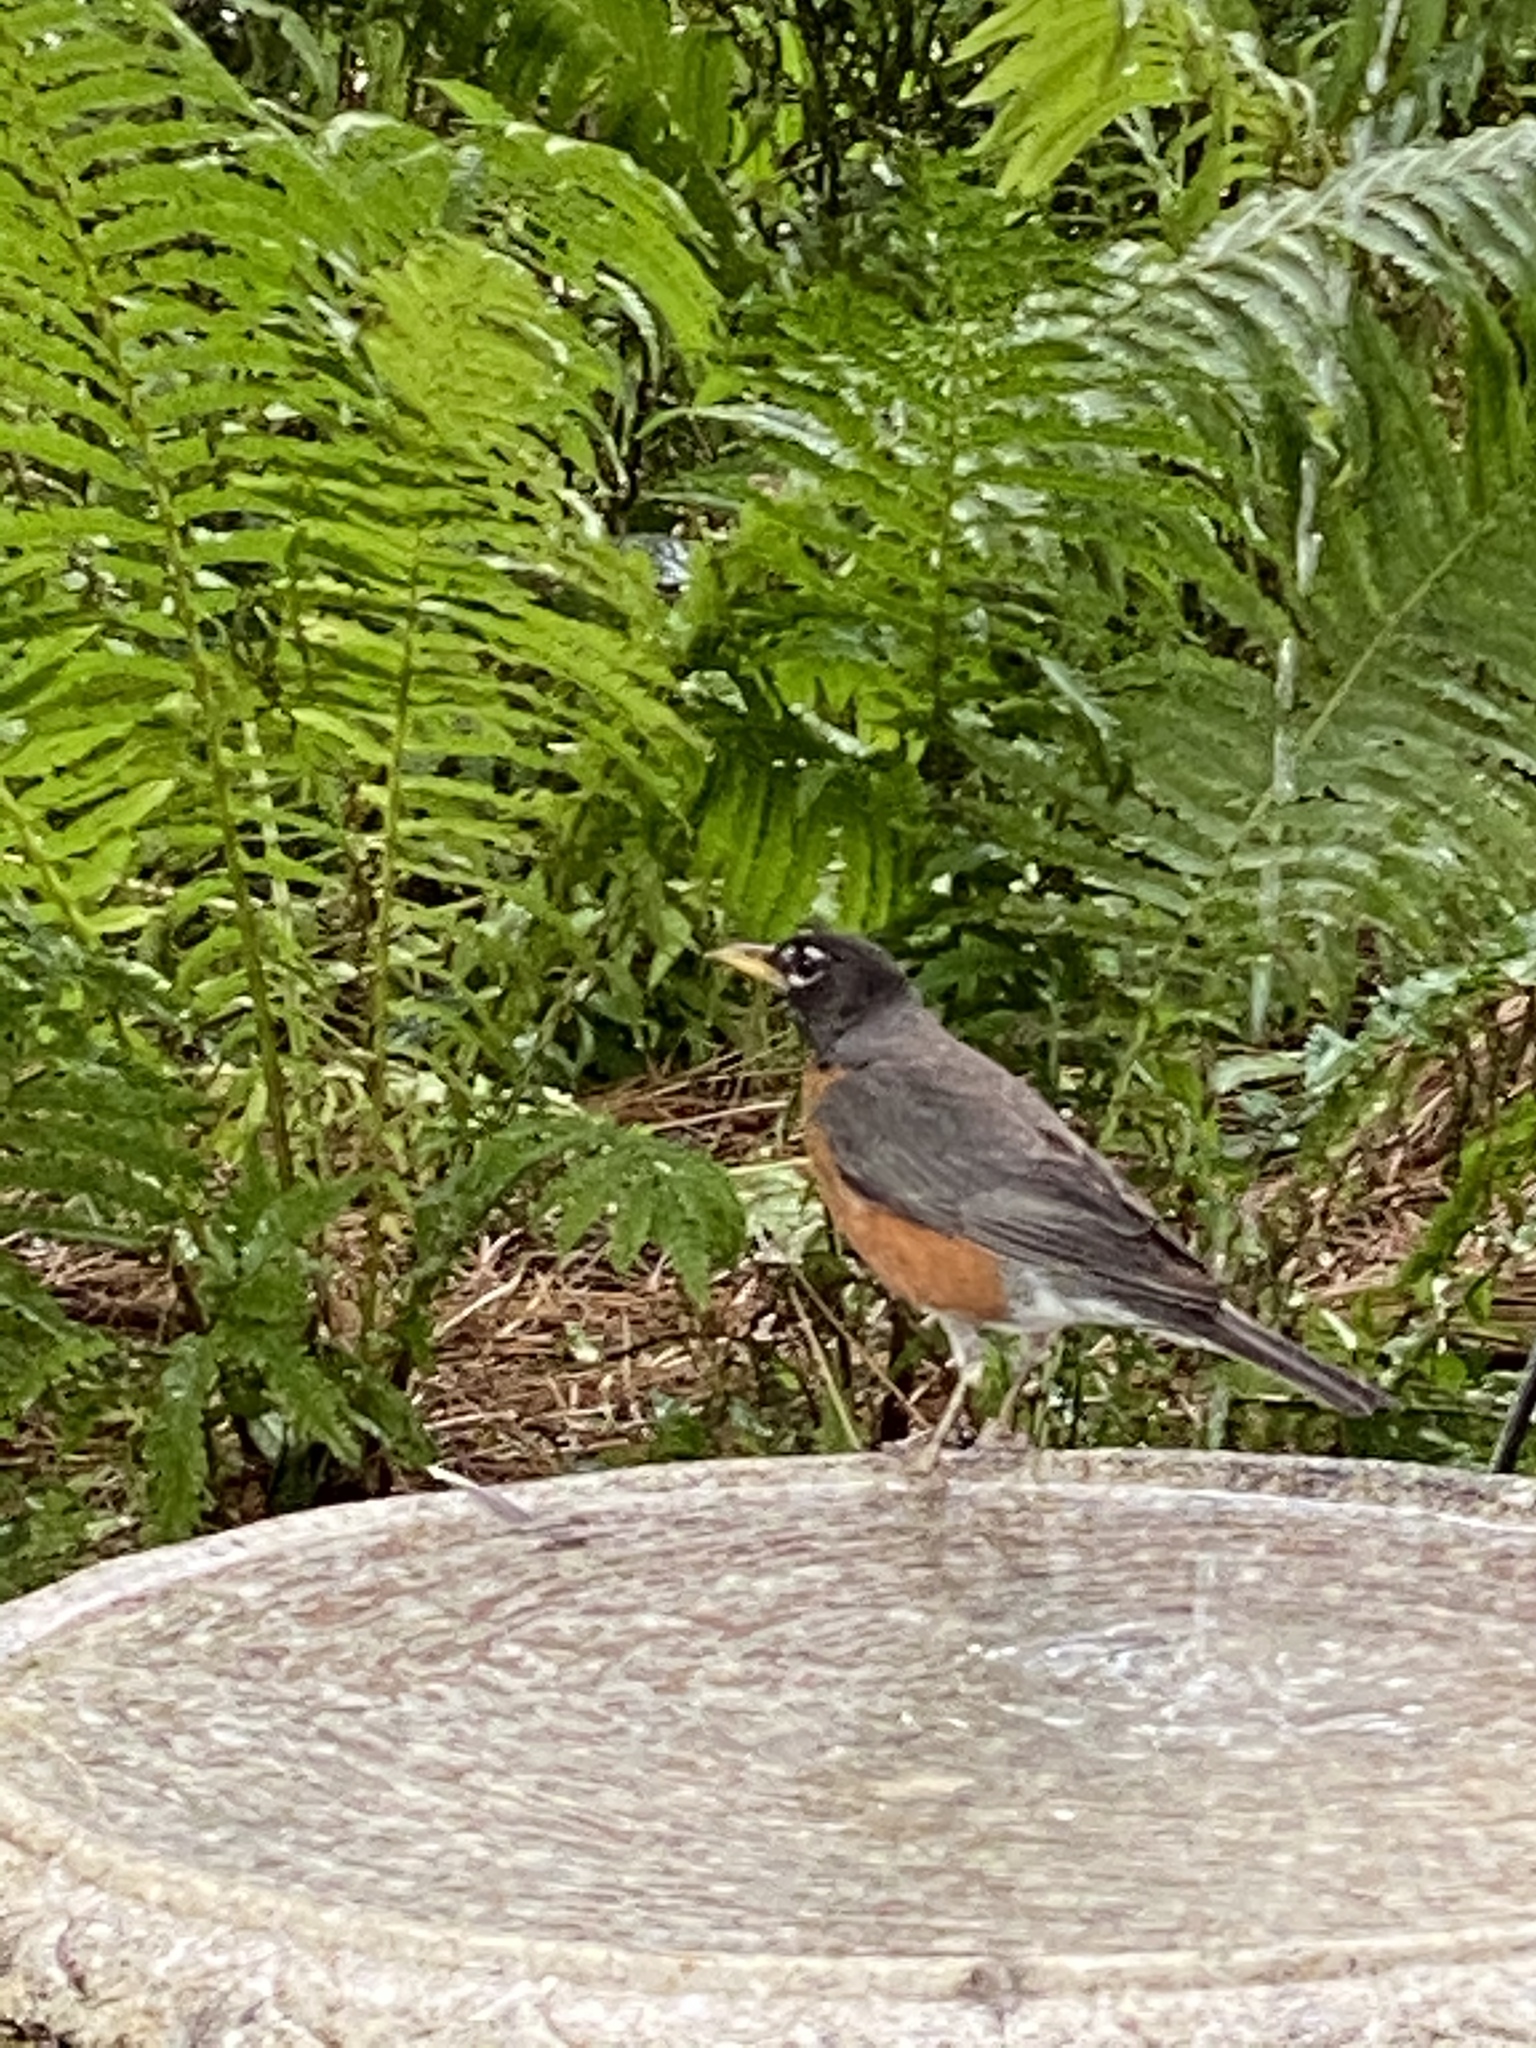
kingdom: Animalia
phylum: Chordata
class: Aves
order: Passeriformes
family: Turdidae
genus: Turdus
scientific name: Turdus migratorius
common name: American robin
